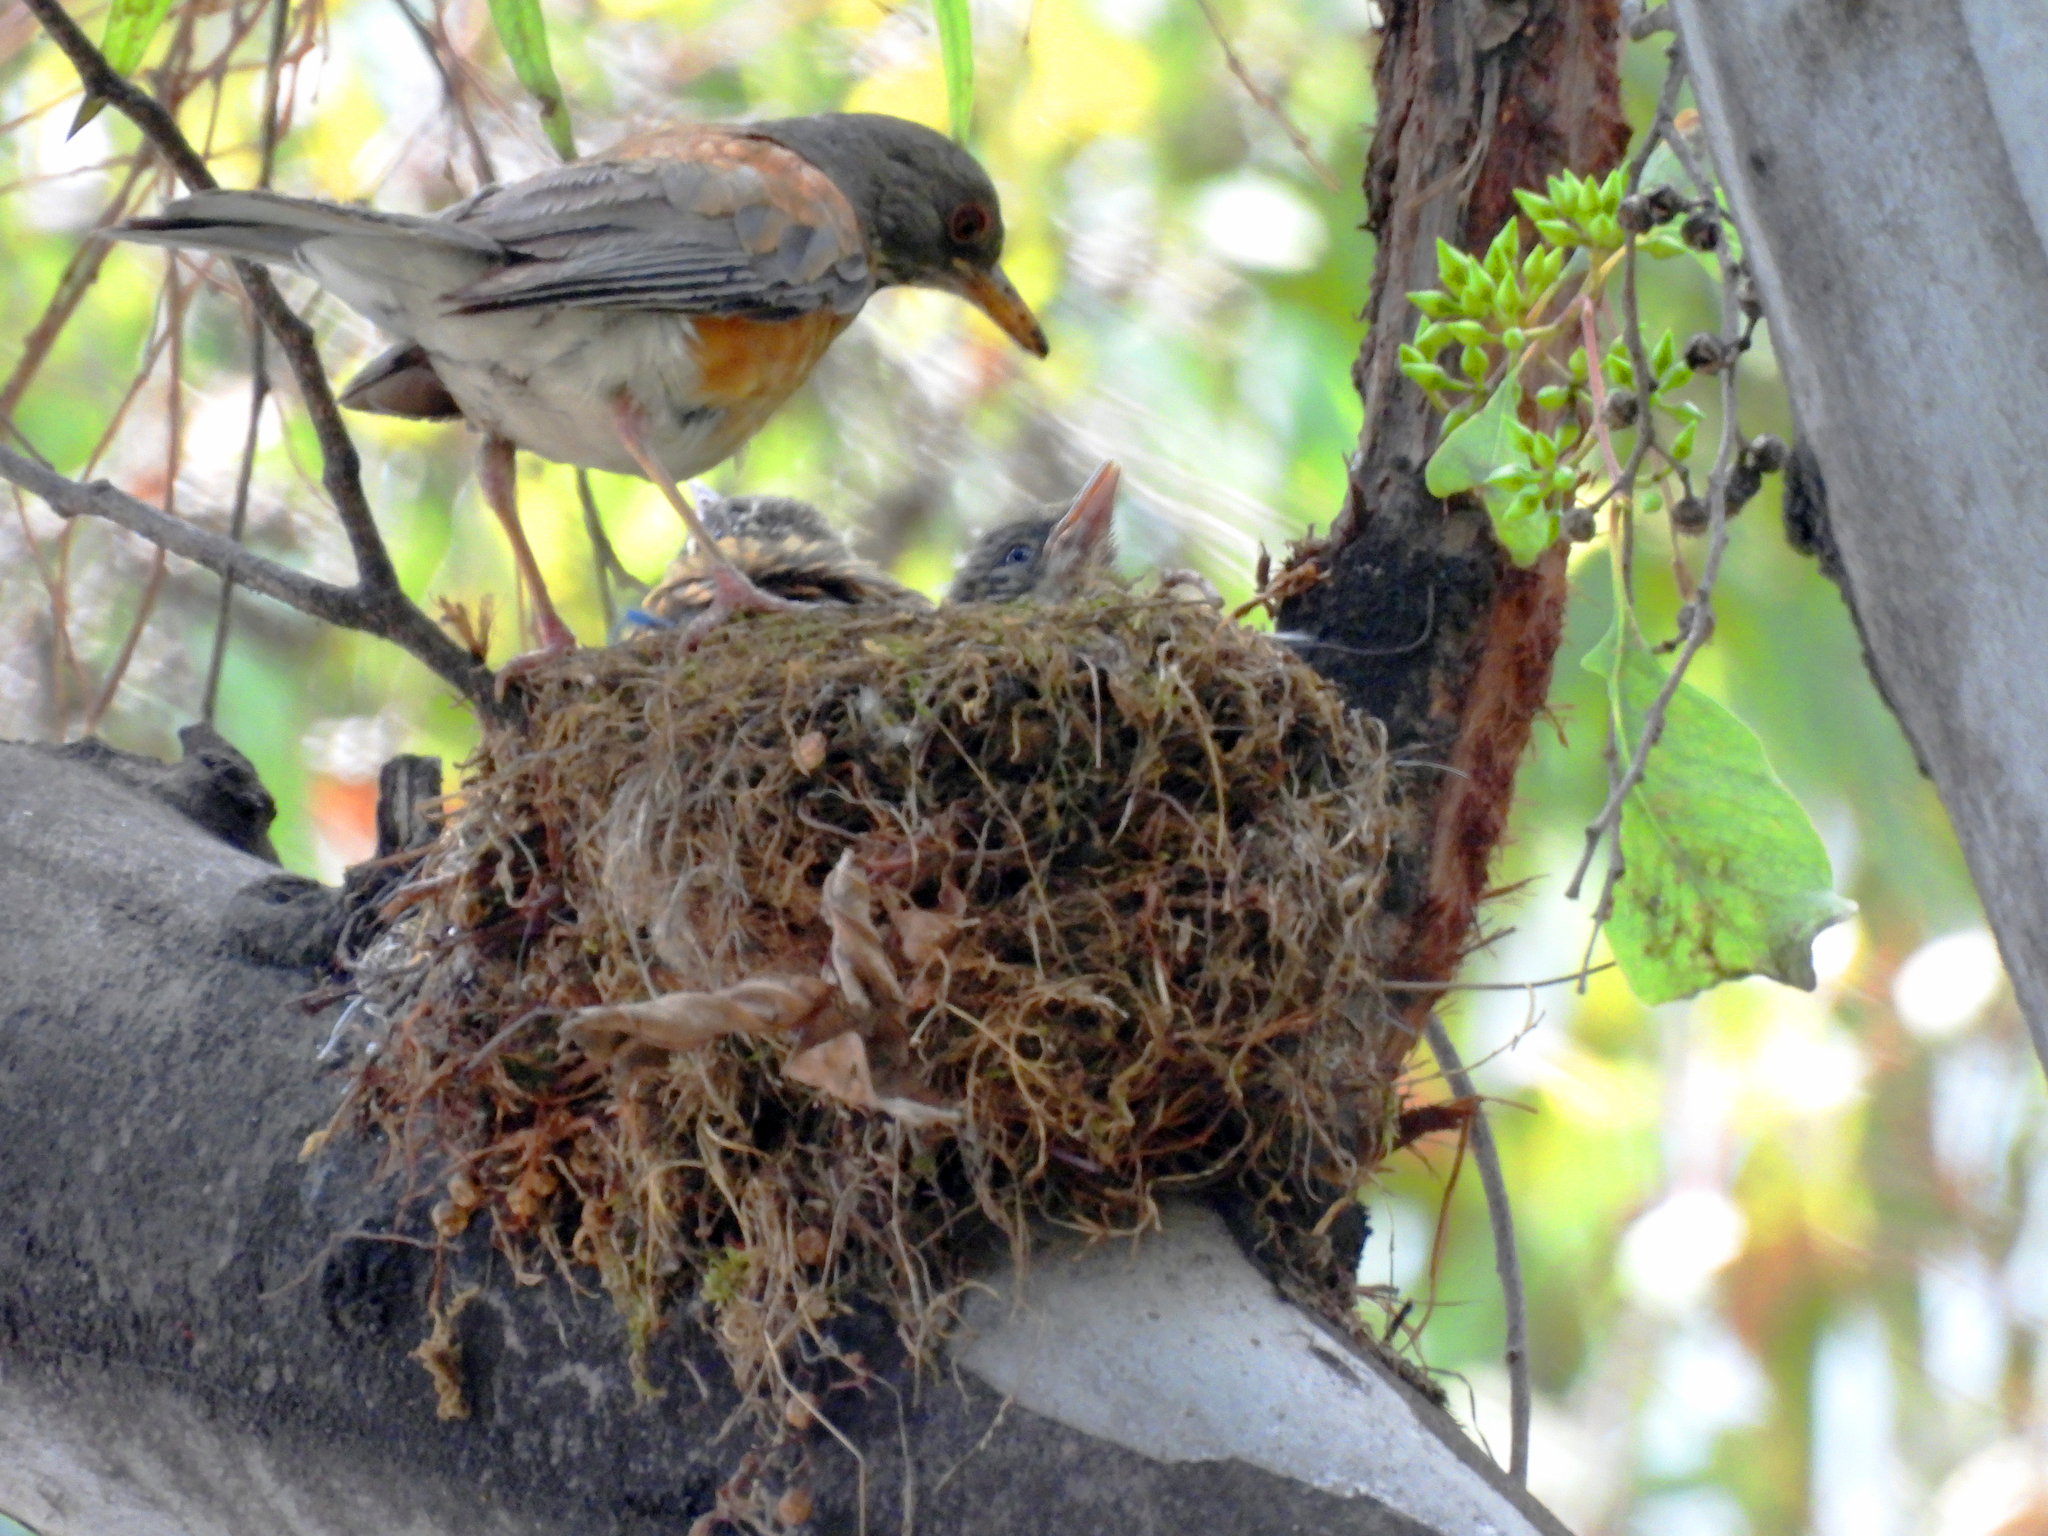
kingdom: Animalia
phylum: Chordata
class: Aves
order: Passeriformes
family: Turdidae
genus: Turdus
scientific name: Turdus rufopalliatus
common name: Rufous-backed robin
